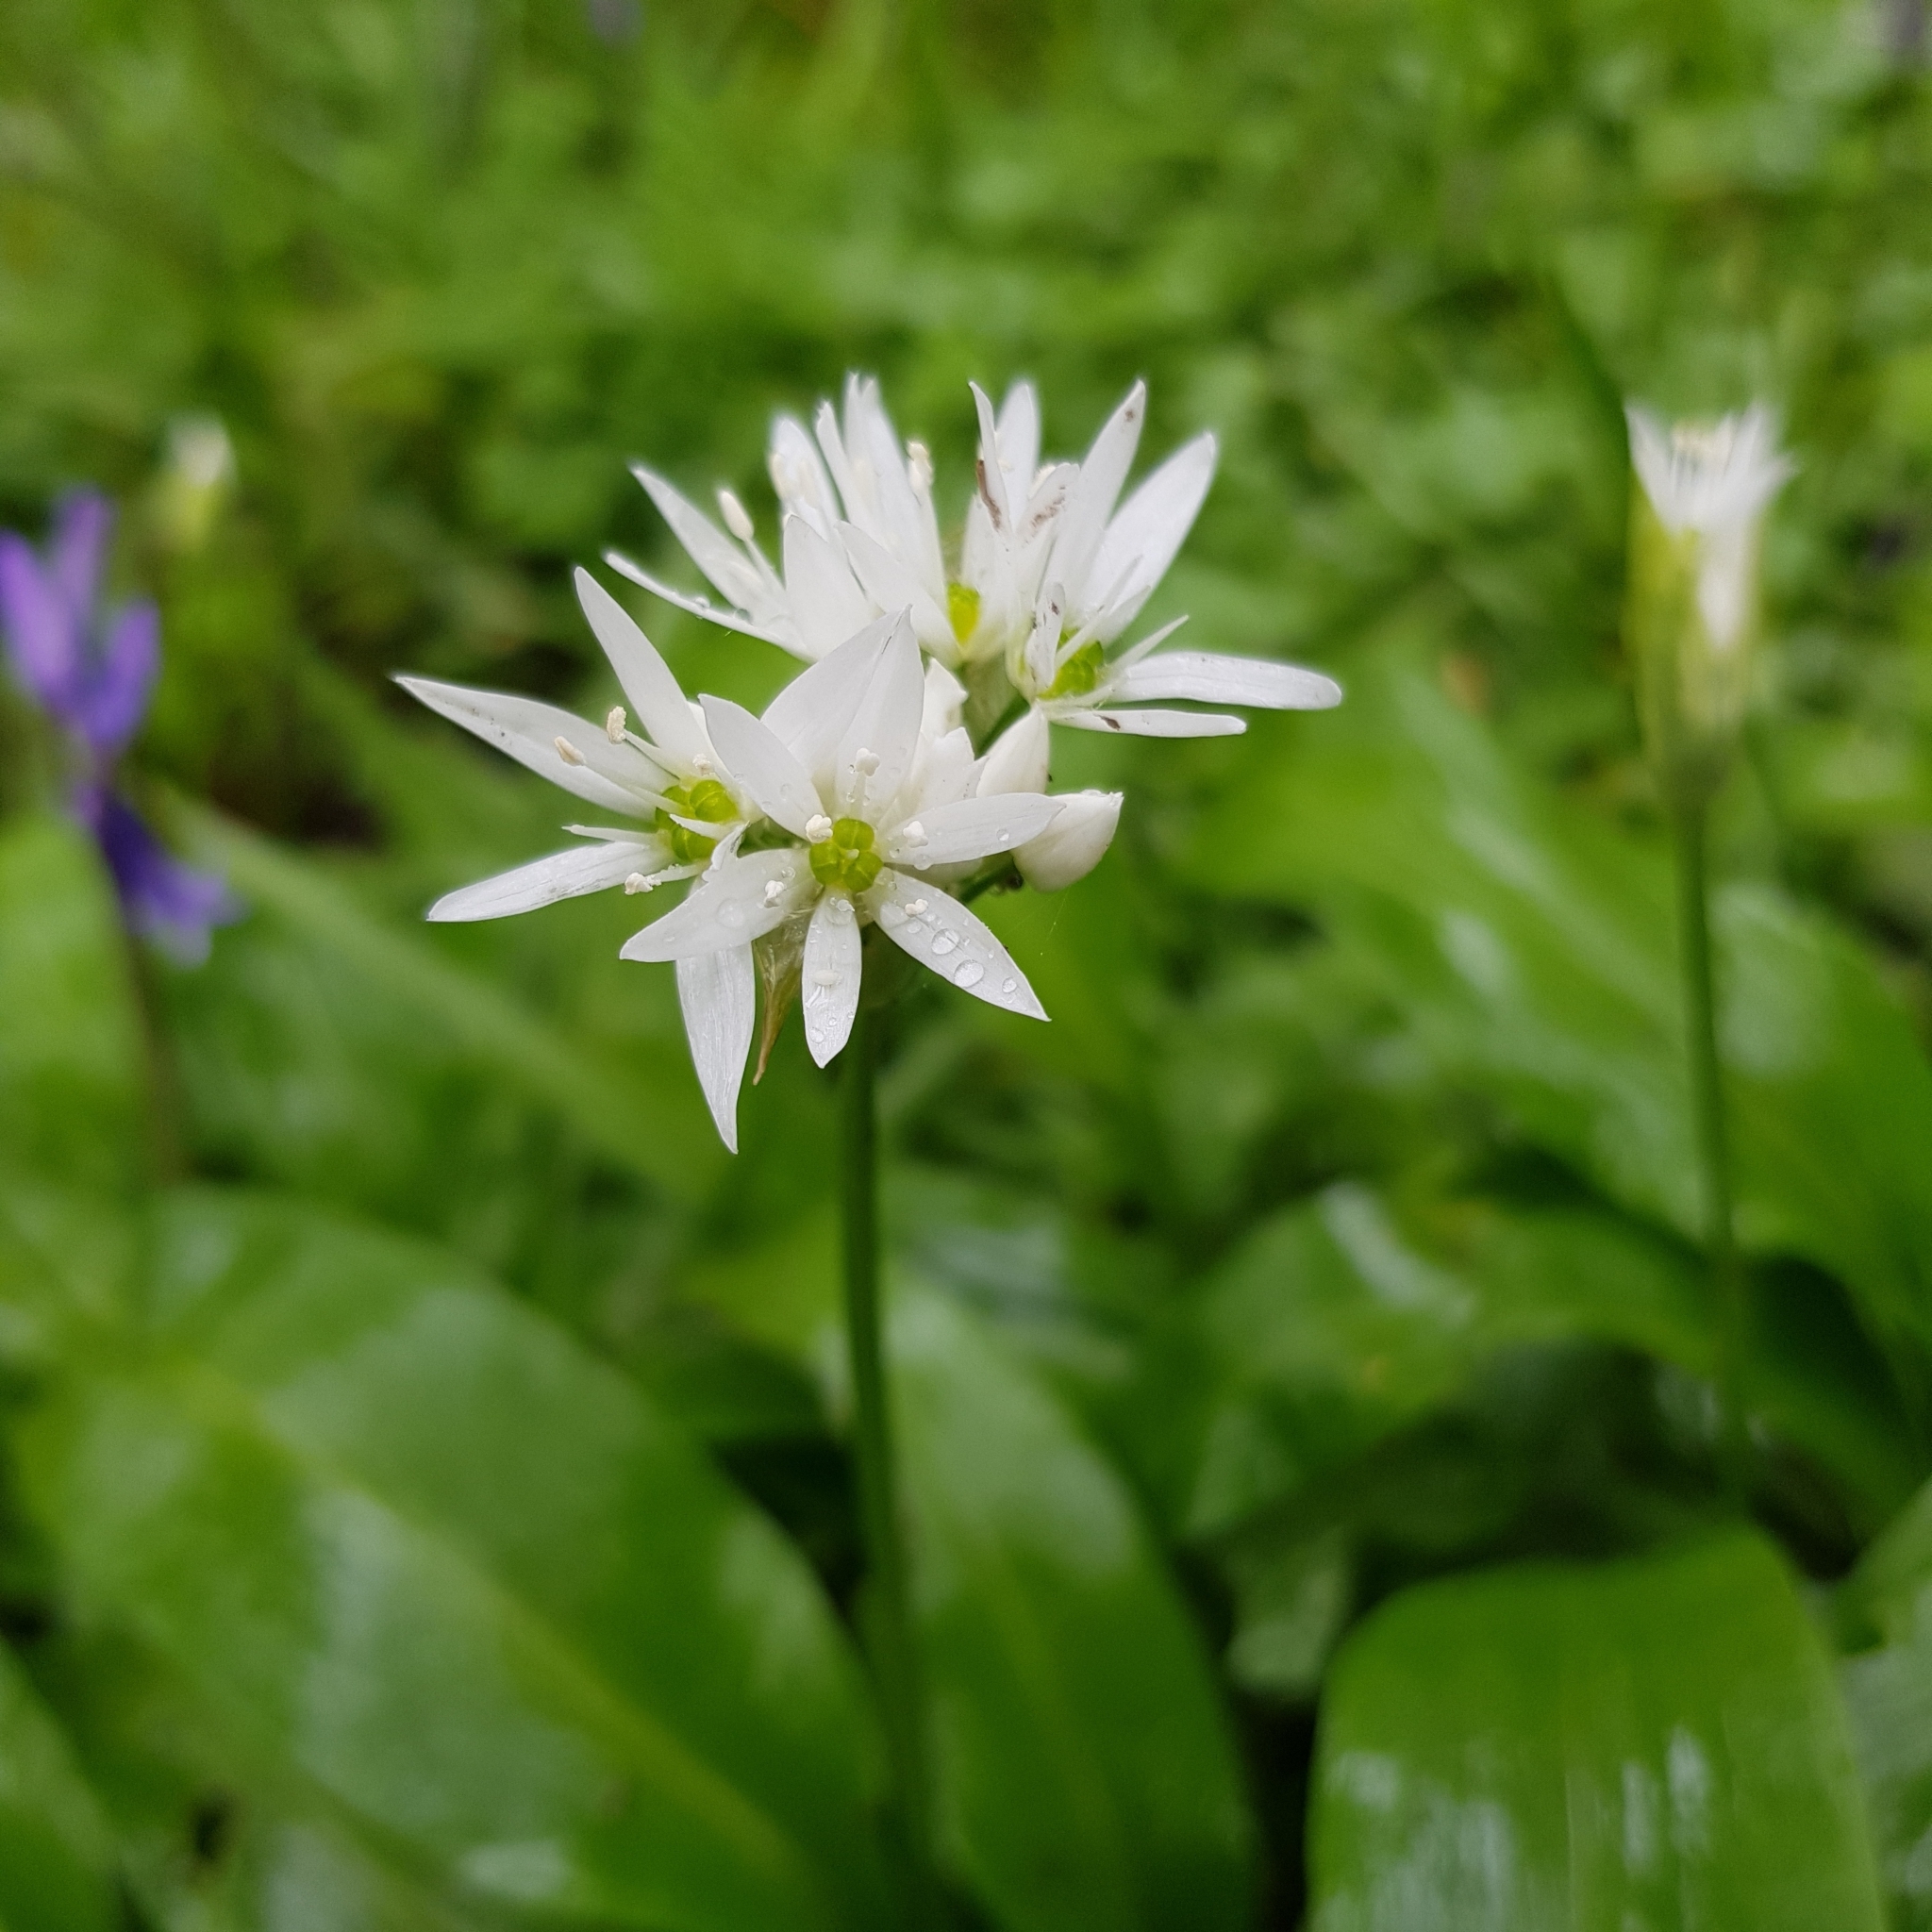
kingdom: Plantae
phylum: Tracheophyta
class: Liliopsida
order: Asparagales
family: Amaryllidaceae
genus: Allium
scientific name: Allium ursinum
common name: Ramsons
